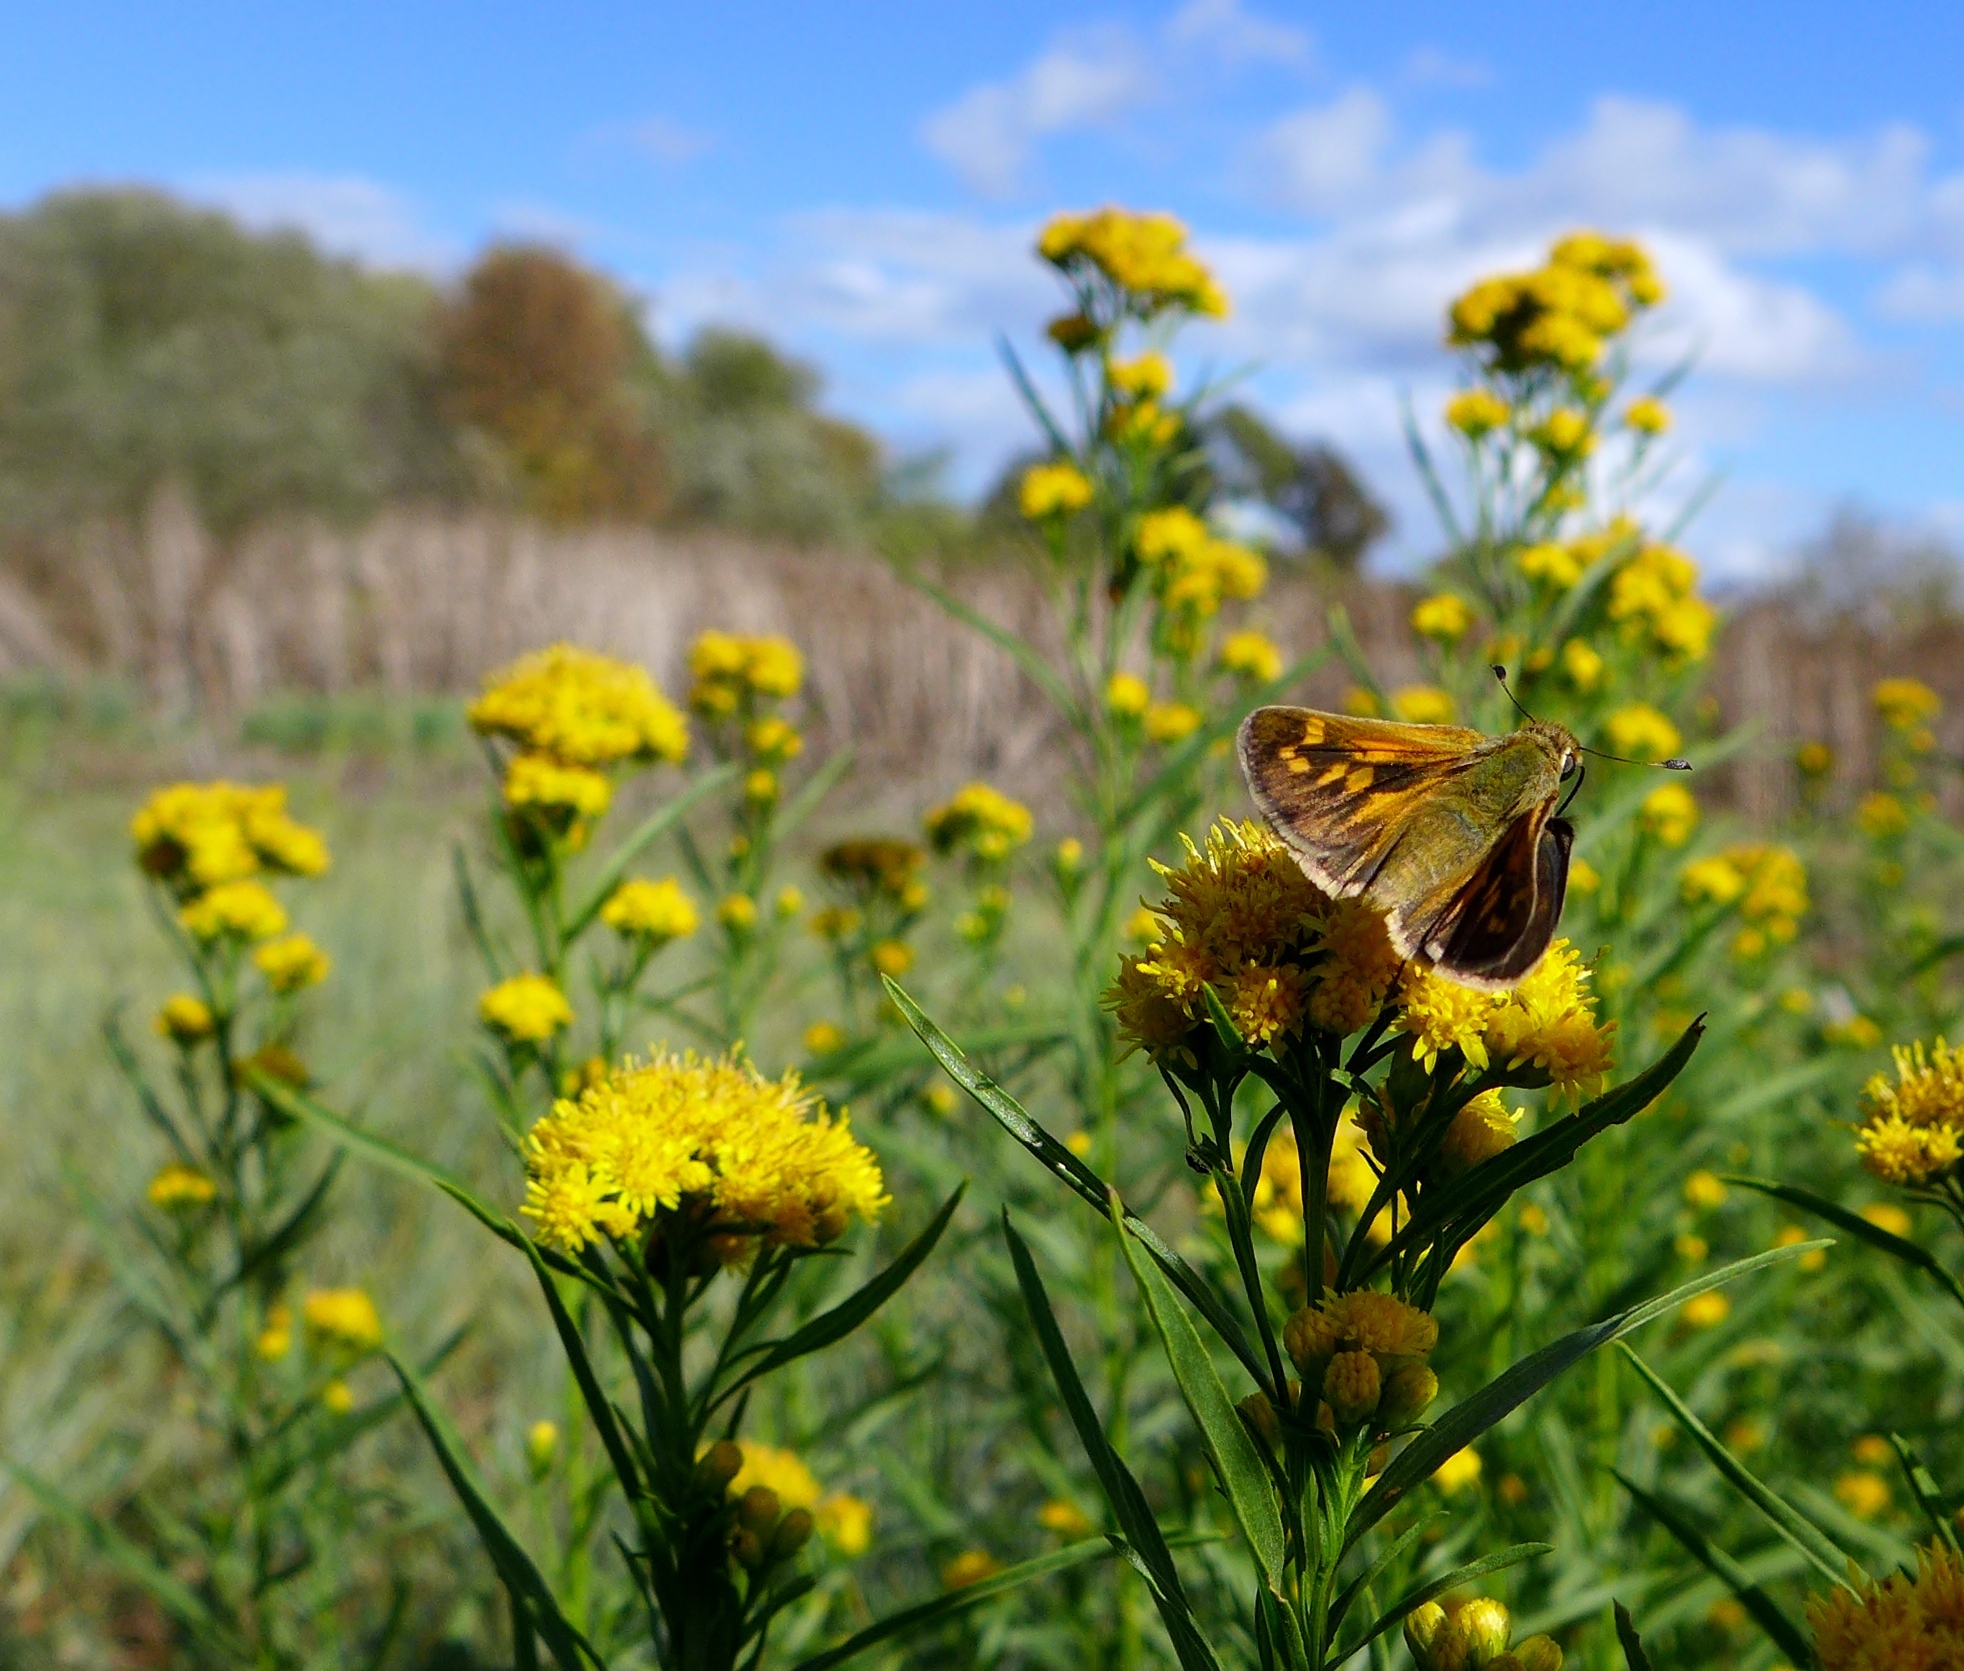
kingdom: Plantae
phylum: Tracheophyta
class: Magnoliopsida
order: Asterales
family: Asteraceae
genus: Euthamia
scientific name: Euthamia occidentalis
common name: Western goldentop
